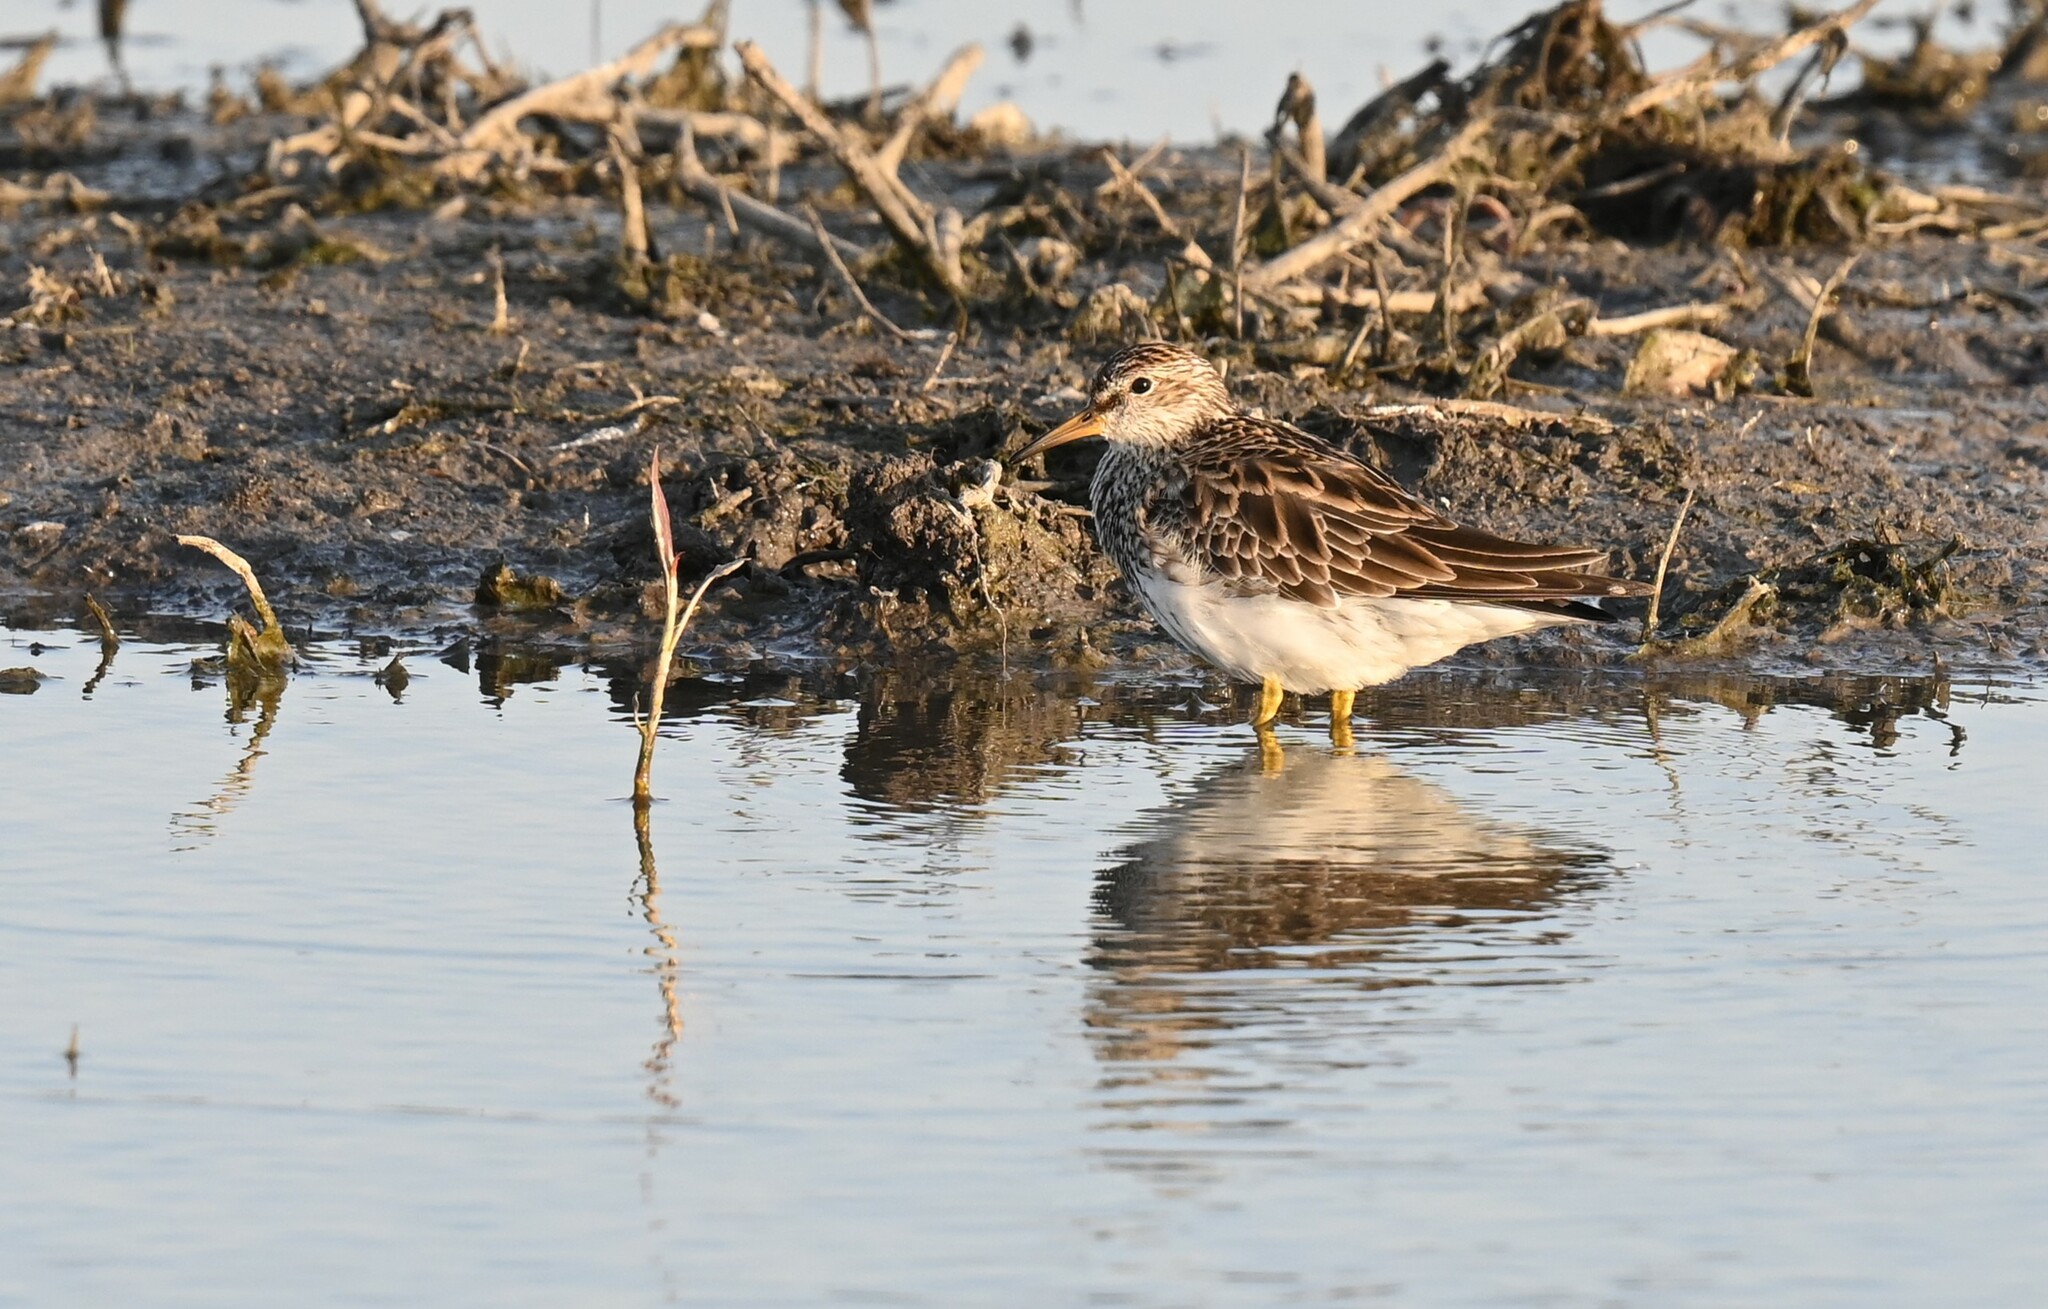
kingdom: Animalia
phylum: Chordata
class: Aves
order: Charadriiformes
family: Scolopacidae
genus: Calidris
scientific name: Calidris melanotos
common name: Pectoral sandpiper
